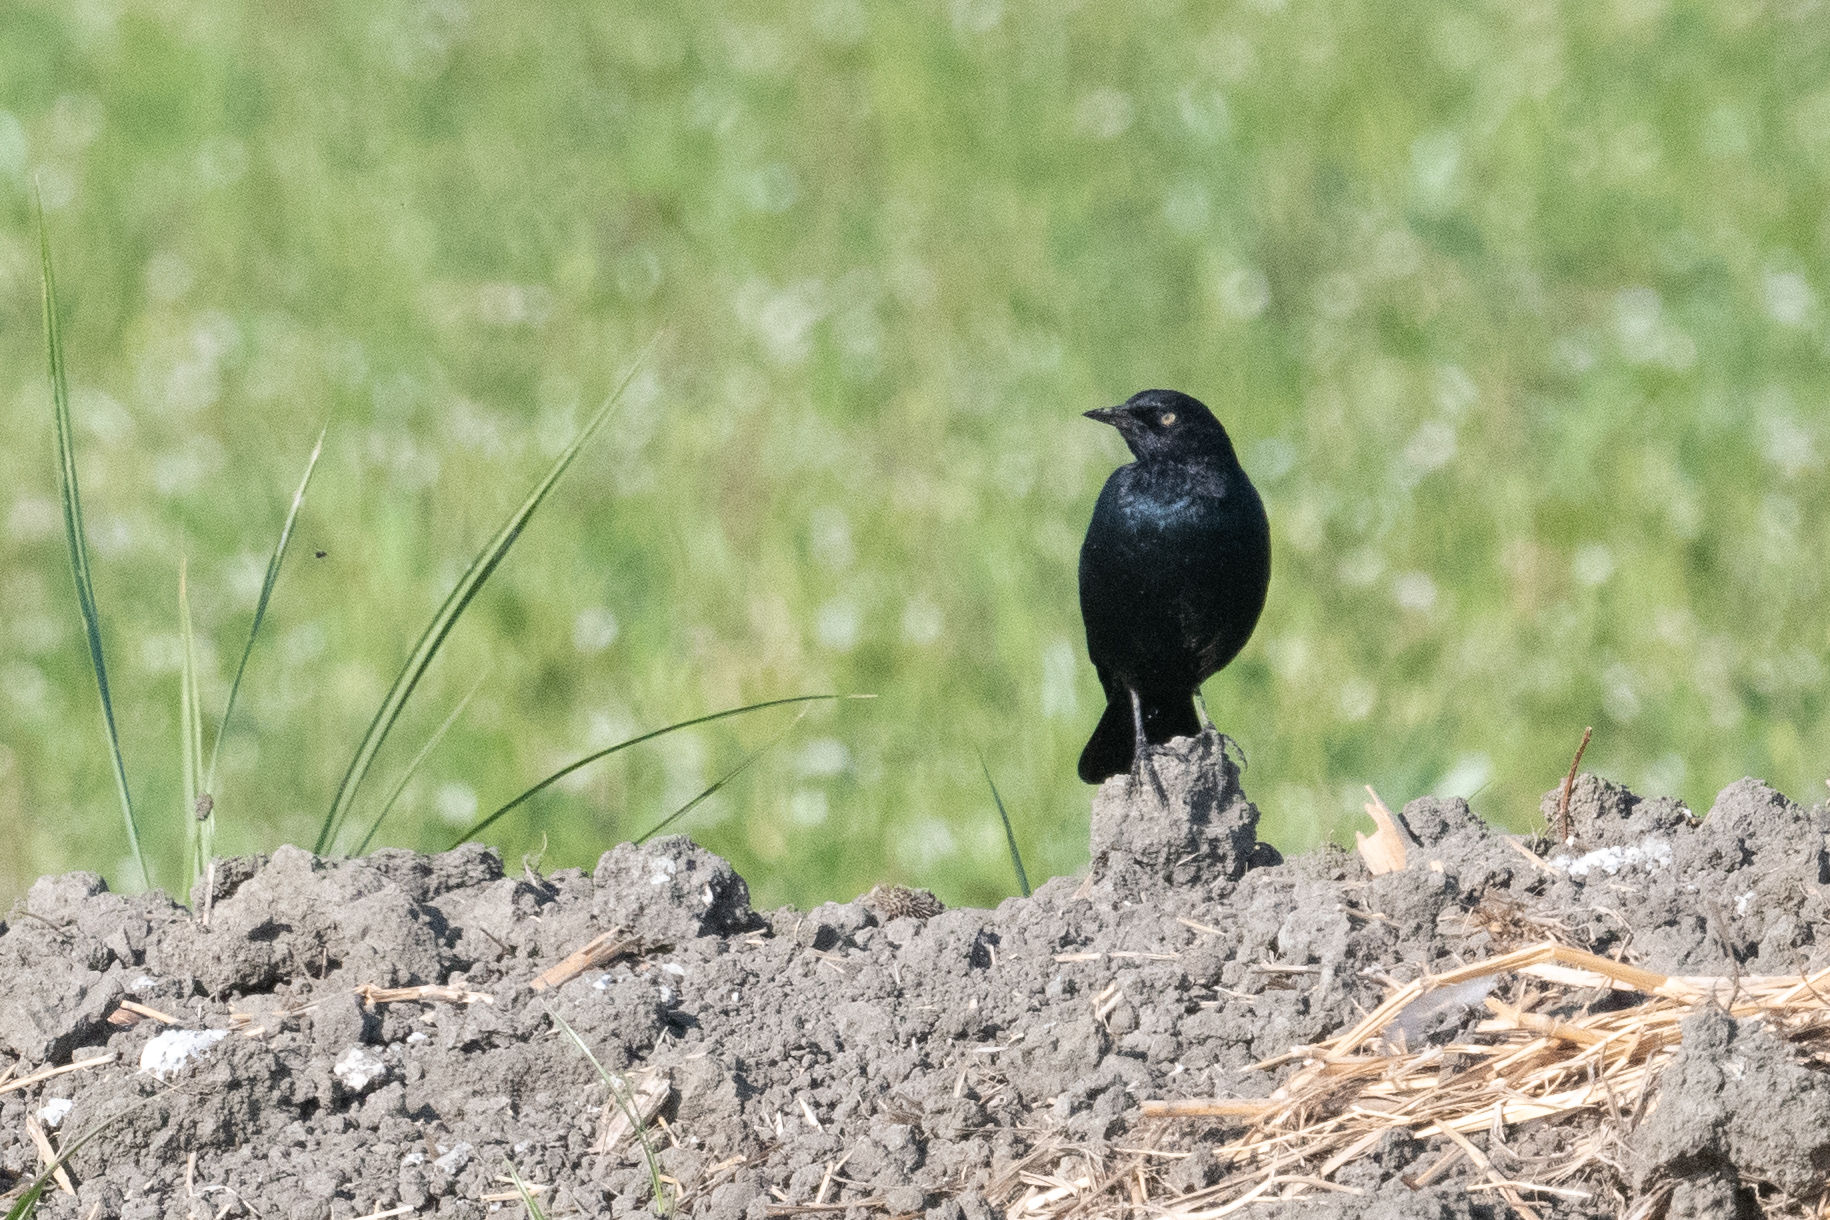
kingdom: Animalia
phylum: Chordata
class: Aves
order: Passeriformes
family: Icteridae
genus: Euphagus
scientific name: Euphagus cyanocephalus
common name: Brewer's blackbird
